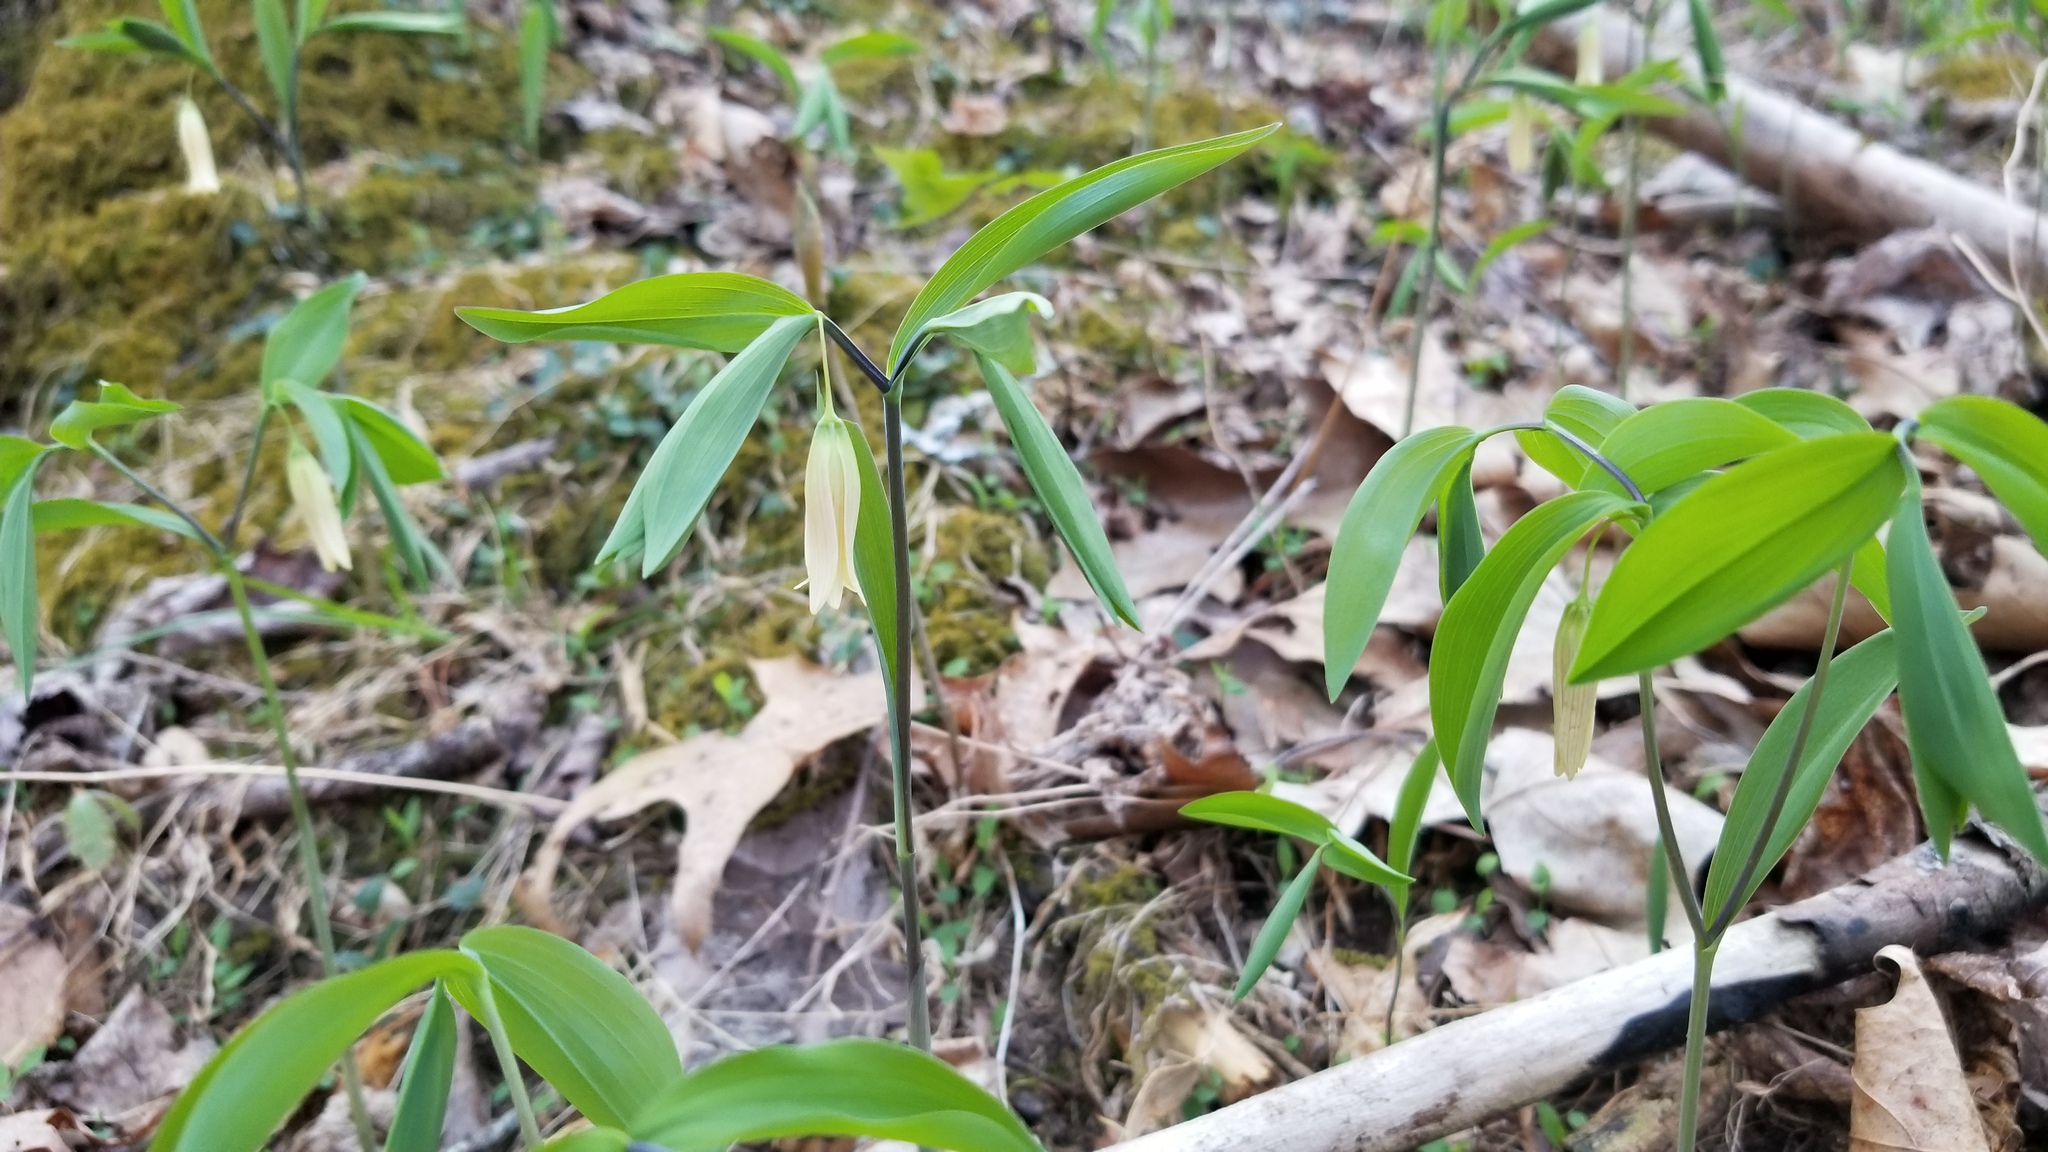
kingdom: Plantae
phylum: Tracheophyta
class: Liliopsida
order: Liliales
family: Colchicaceae
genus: Uvularia
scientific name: Uvularia sessilifolia
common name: Straw-lily
